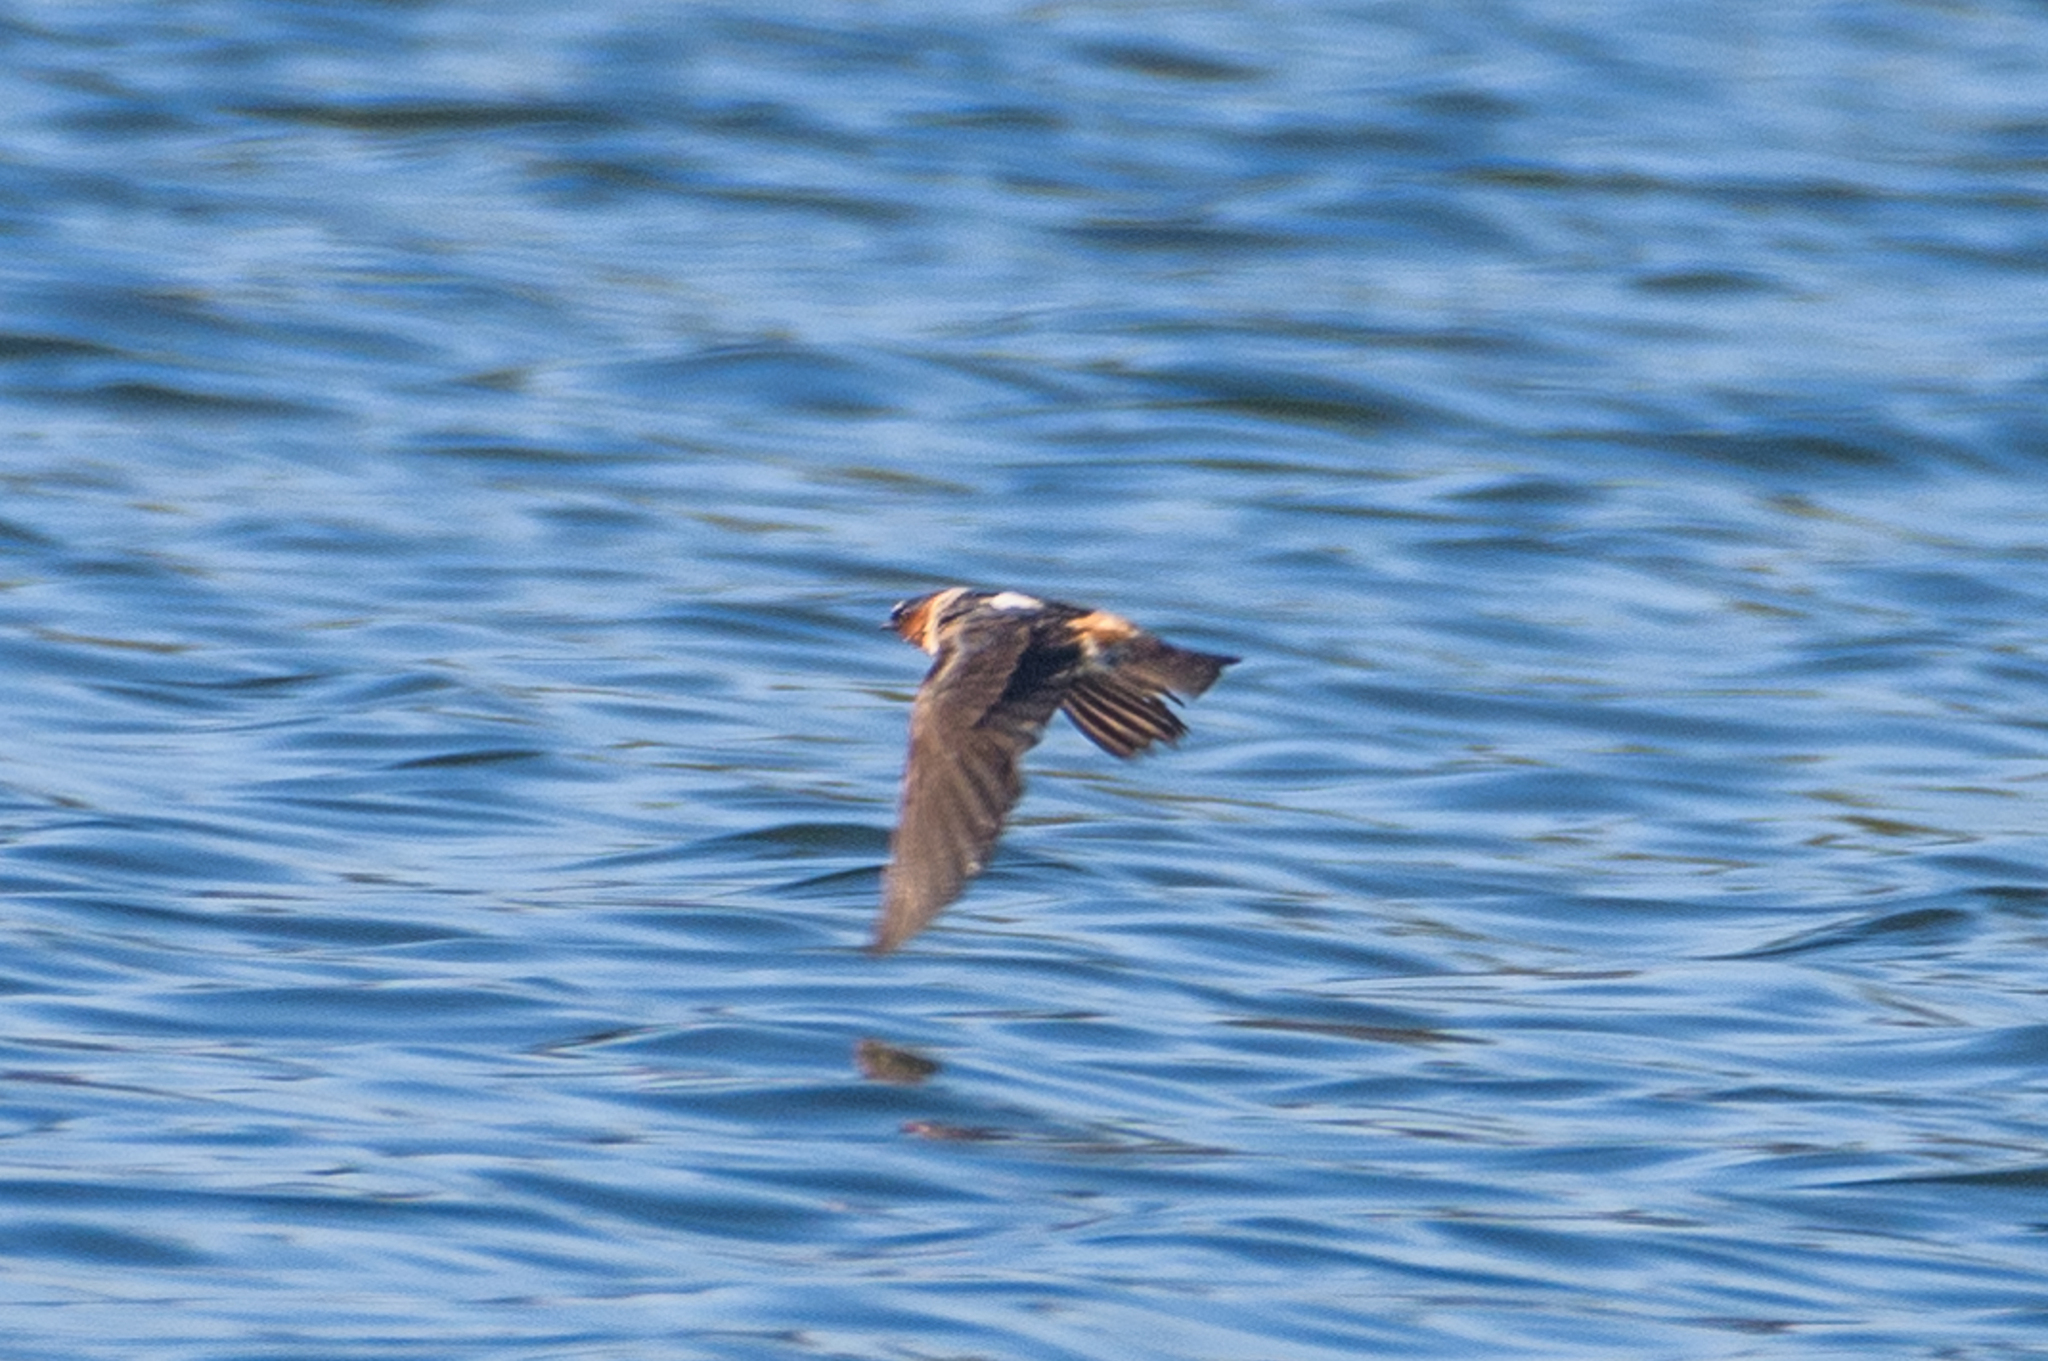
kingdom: Animalia
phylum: Chordata
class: Aves
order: Passeriformes
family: Hirundinidae
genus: Petrochelidon
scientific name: Petrochelidon pyrrhonota
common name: American cliff swallow
